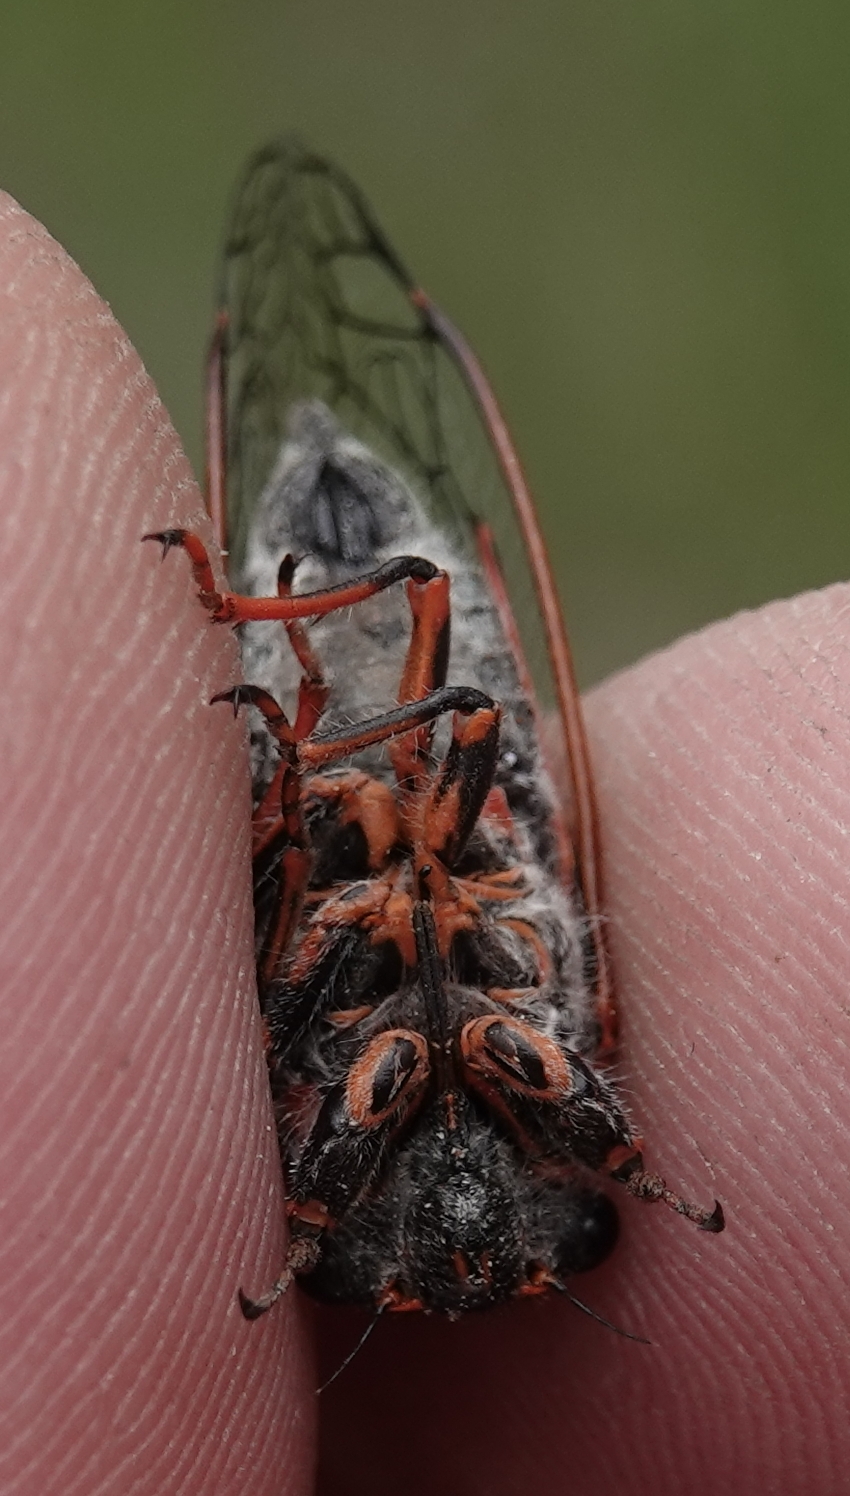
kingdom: Animalia
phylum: Arthropoda
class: Insecta
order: Hemiptera
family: Cicadidae
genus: Platypedia
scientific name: Platypedia putnami
